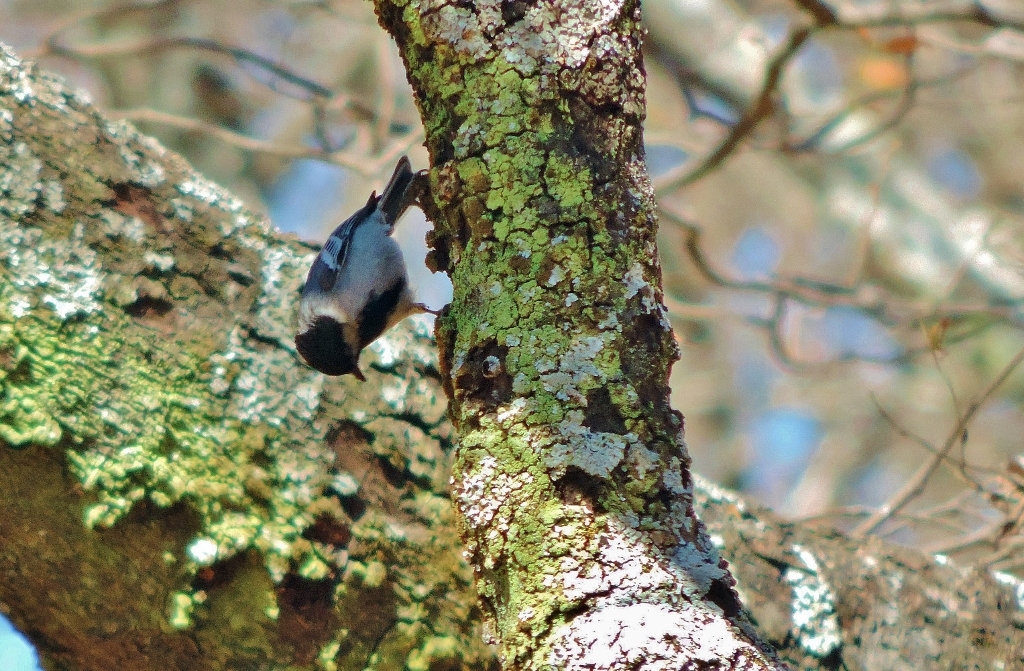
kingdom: Animalia
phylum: Chordata
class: Aves
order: Passeriformes
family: Paridae
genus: Parus
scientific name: Parus griseiventris
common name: Miombo tit
